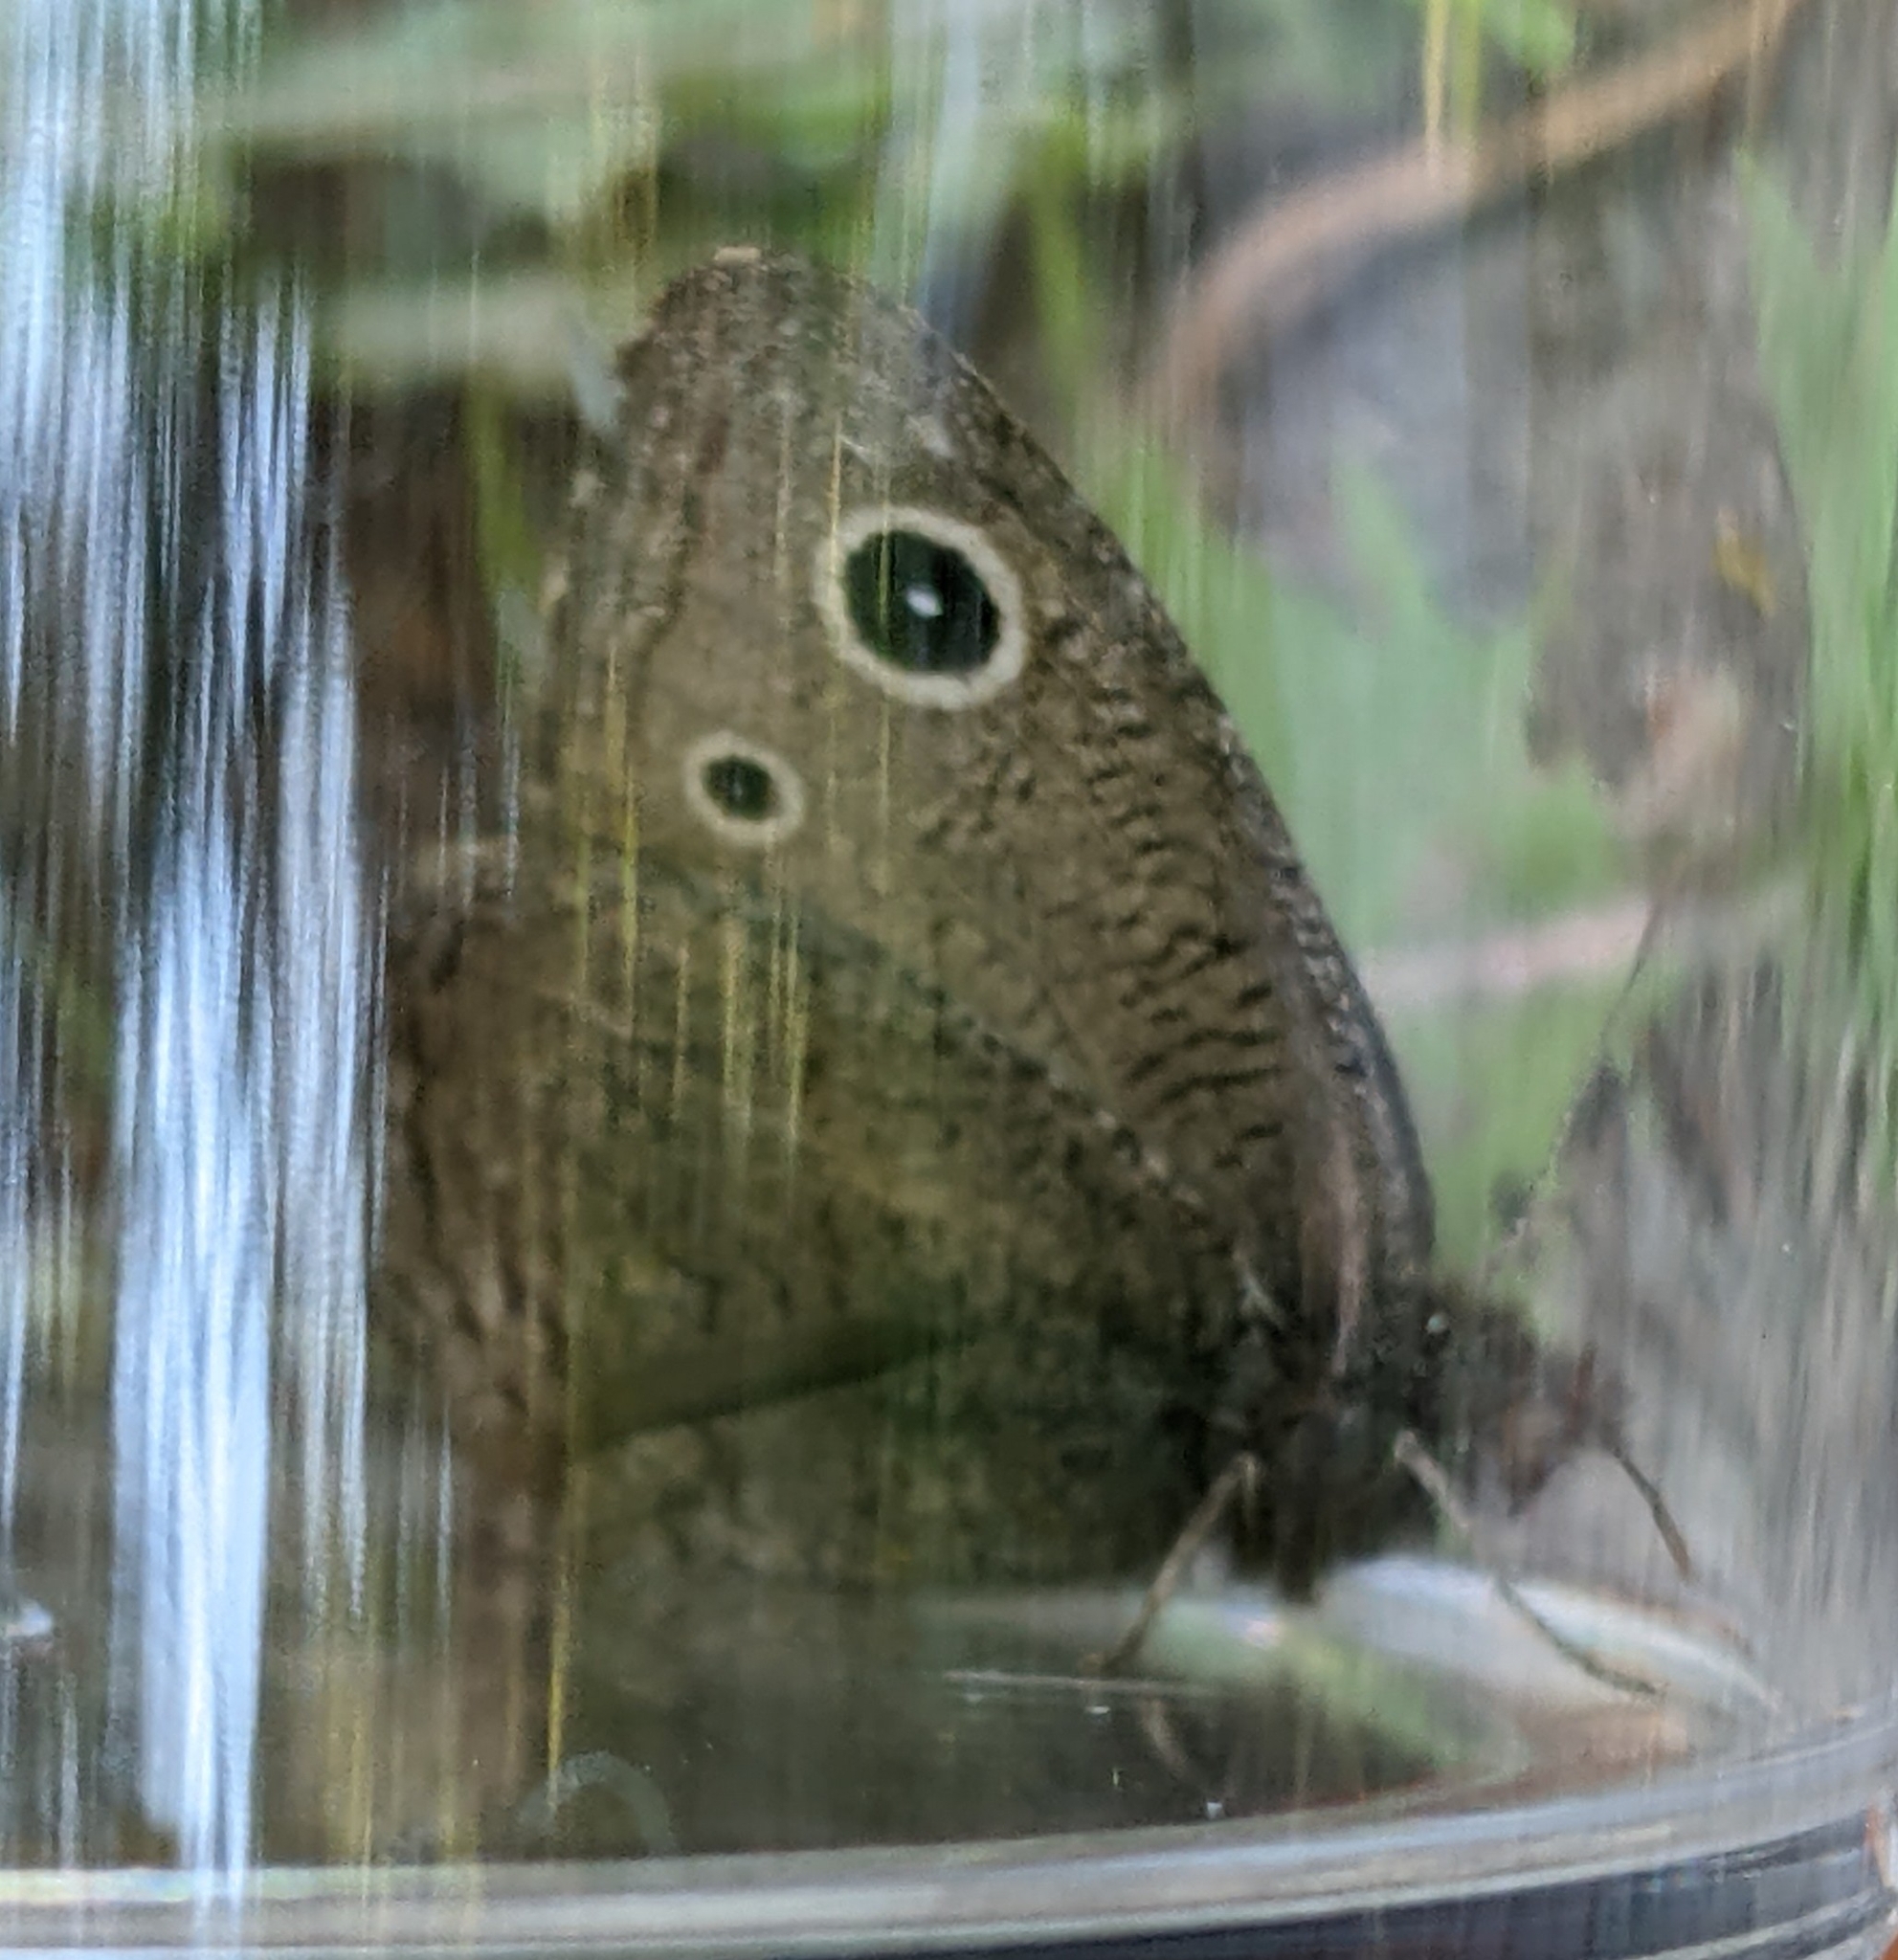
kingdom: Animalia
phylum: Arthropoda
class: Insecta
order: Lepidoptera
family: Nymphalidae
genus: Cercyonis
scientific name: Cercyonis oetus
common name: Small wood-nymph
